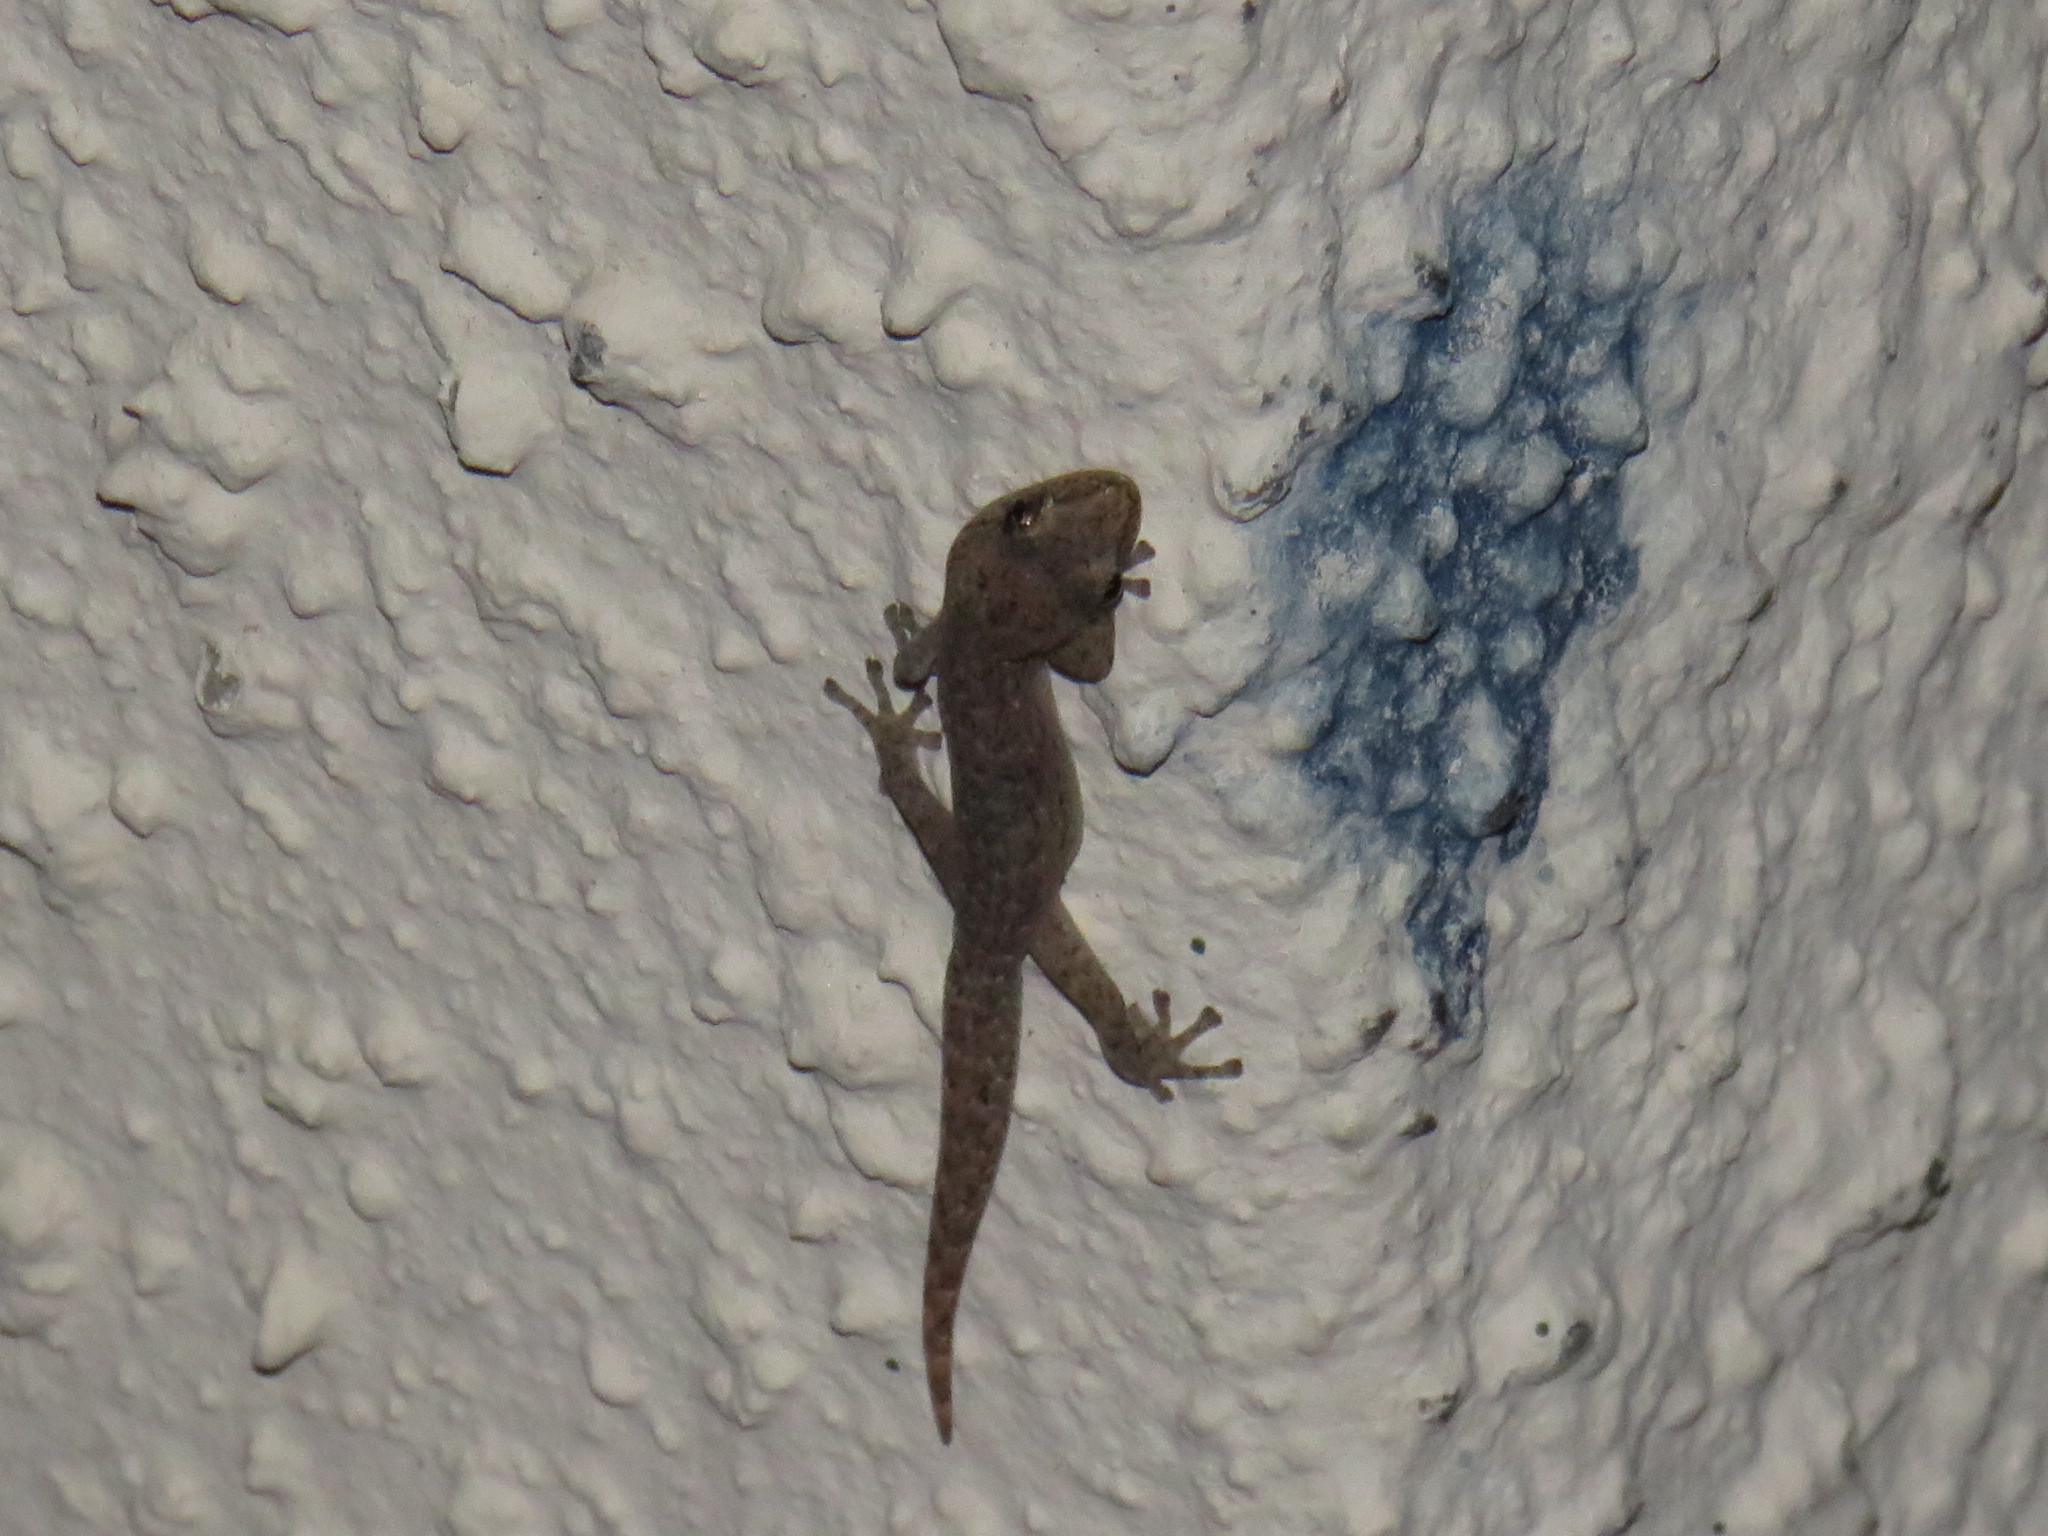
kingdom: Animalia
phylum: Chordata
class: Squamata
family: Gekkonidae
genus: Afrogecko
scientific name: Afrogecko porphyreus
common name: Marbled leaf-toed gecko
